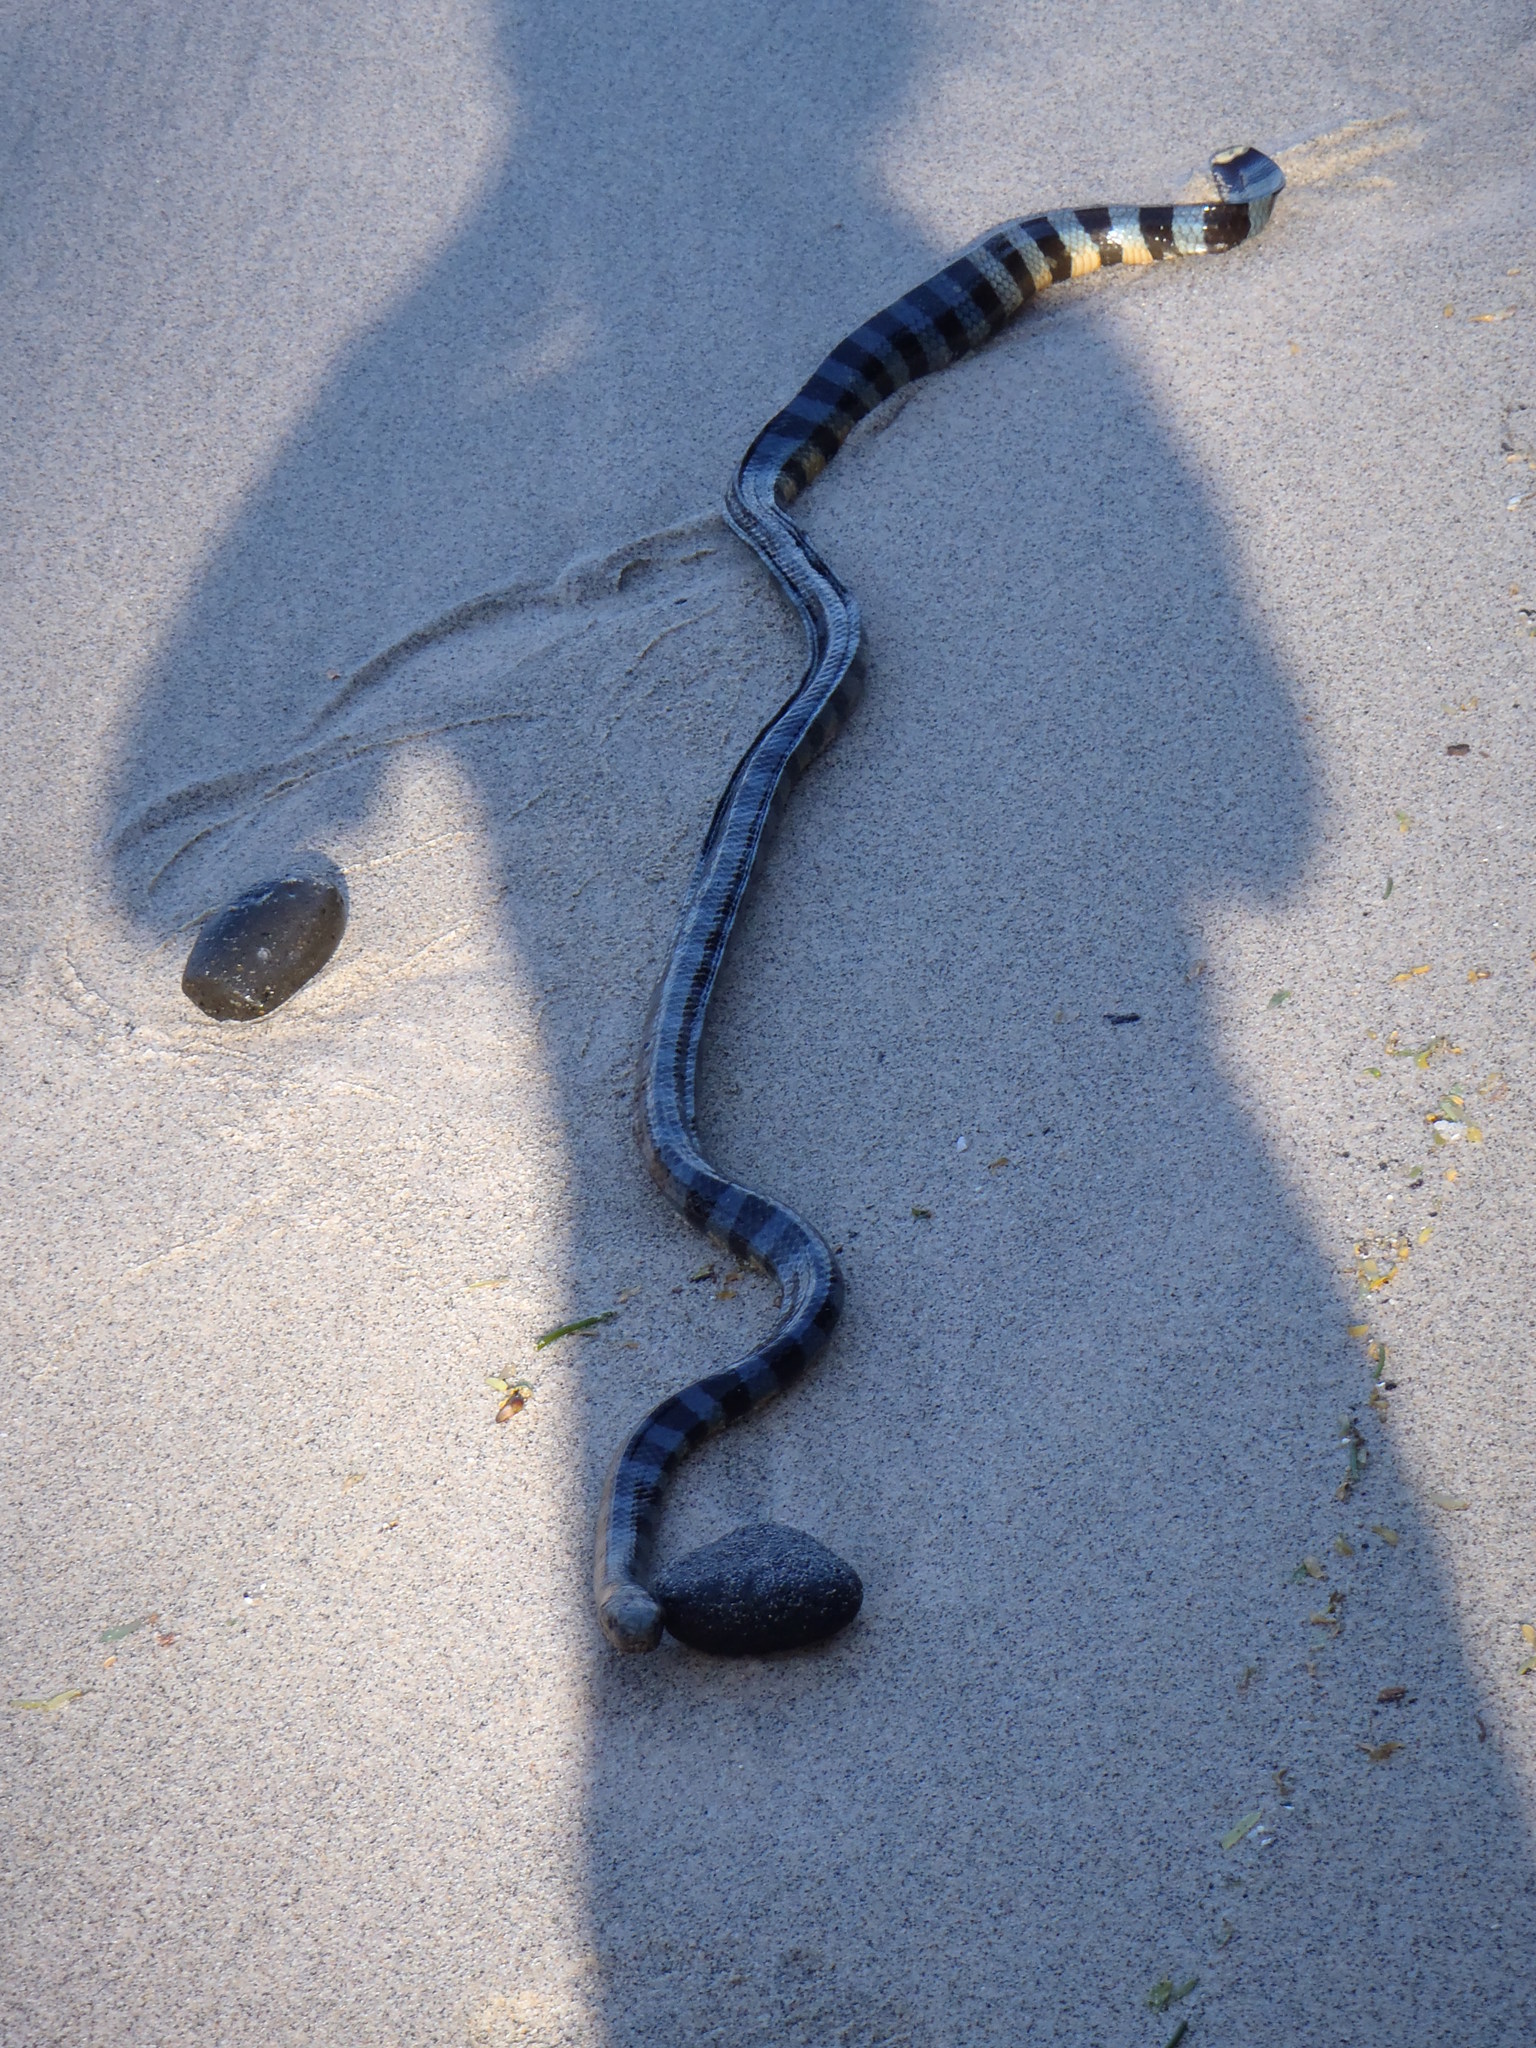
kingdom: Animalia
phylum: Chordata
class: Squamata
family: Elapidae
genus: Laticauda
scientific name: Laticauda laticaudata
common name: Blue-banded sea krait
